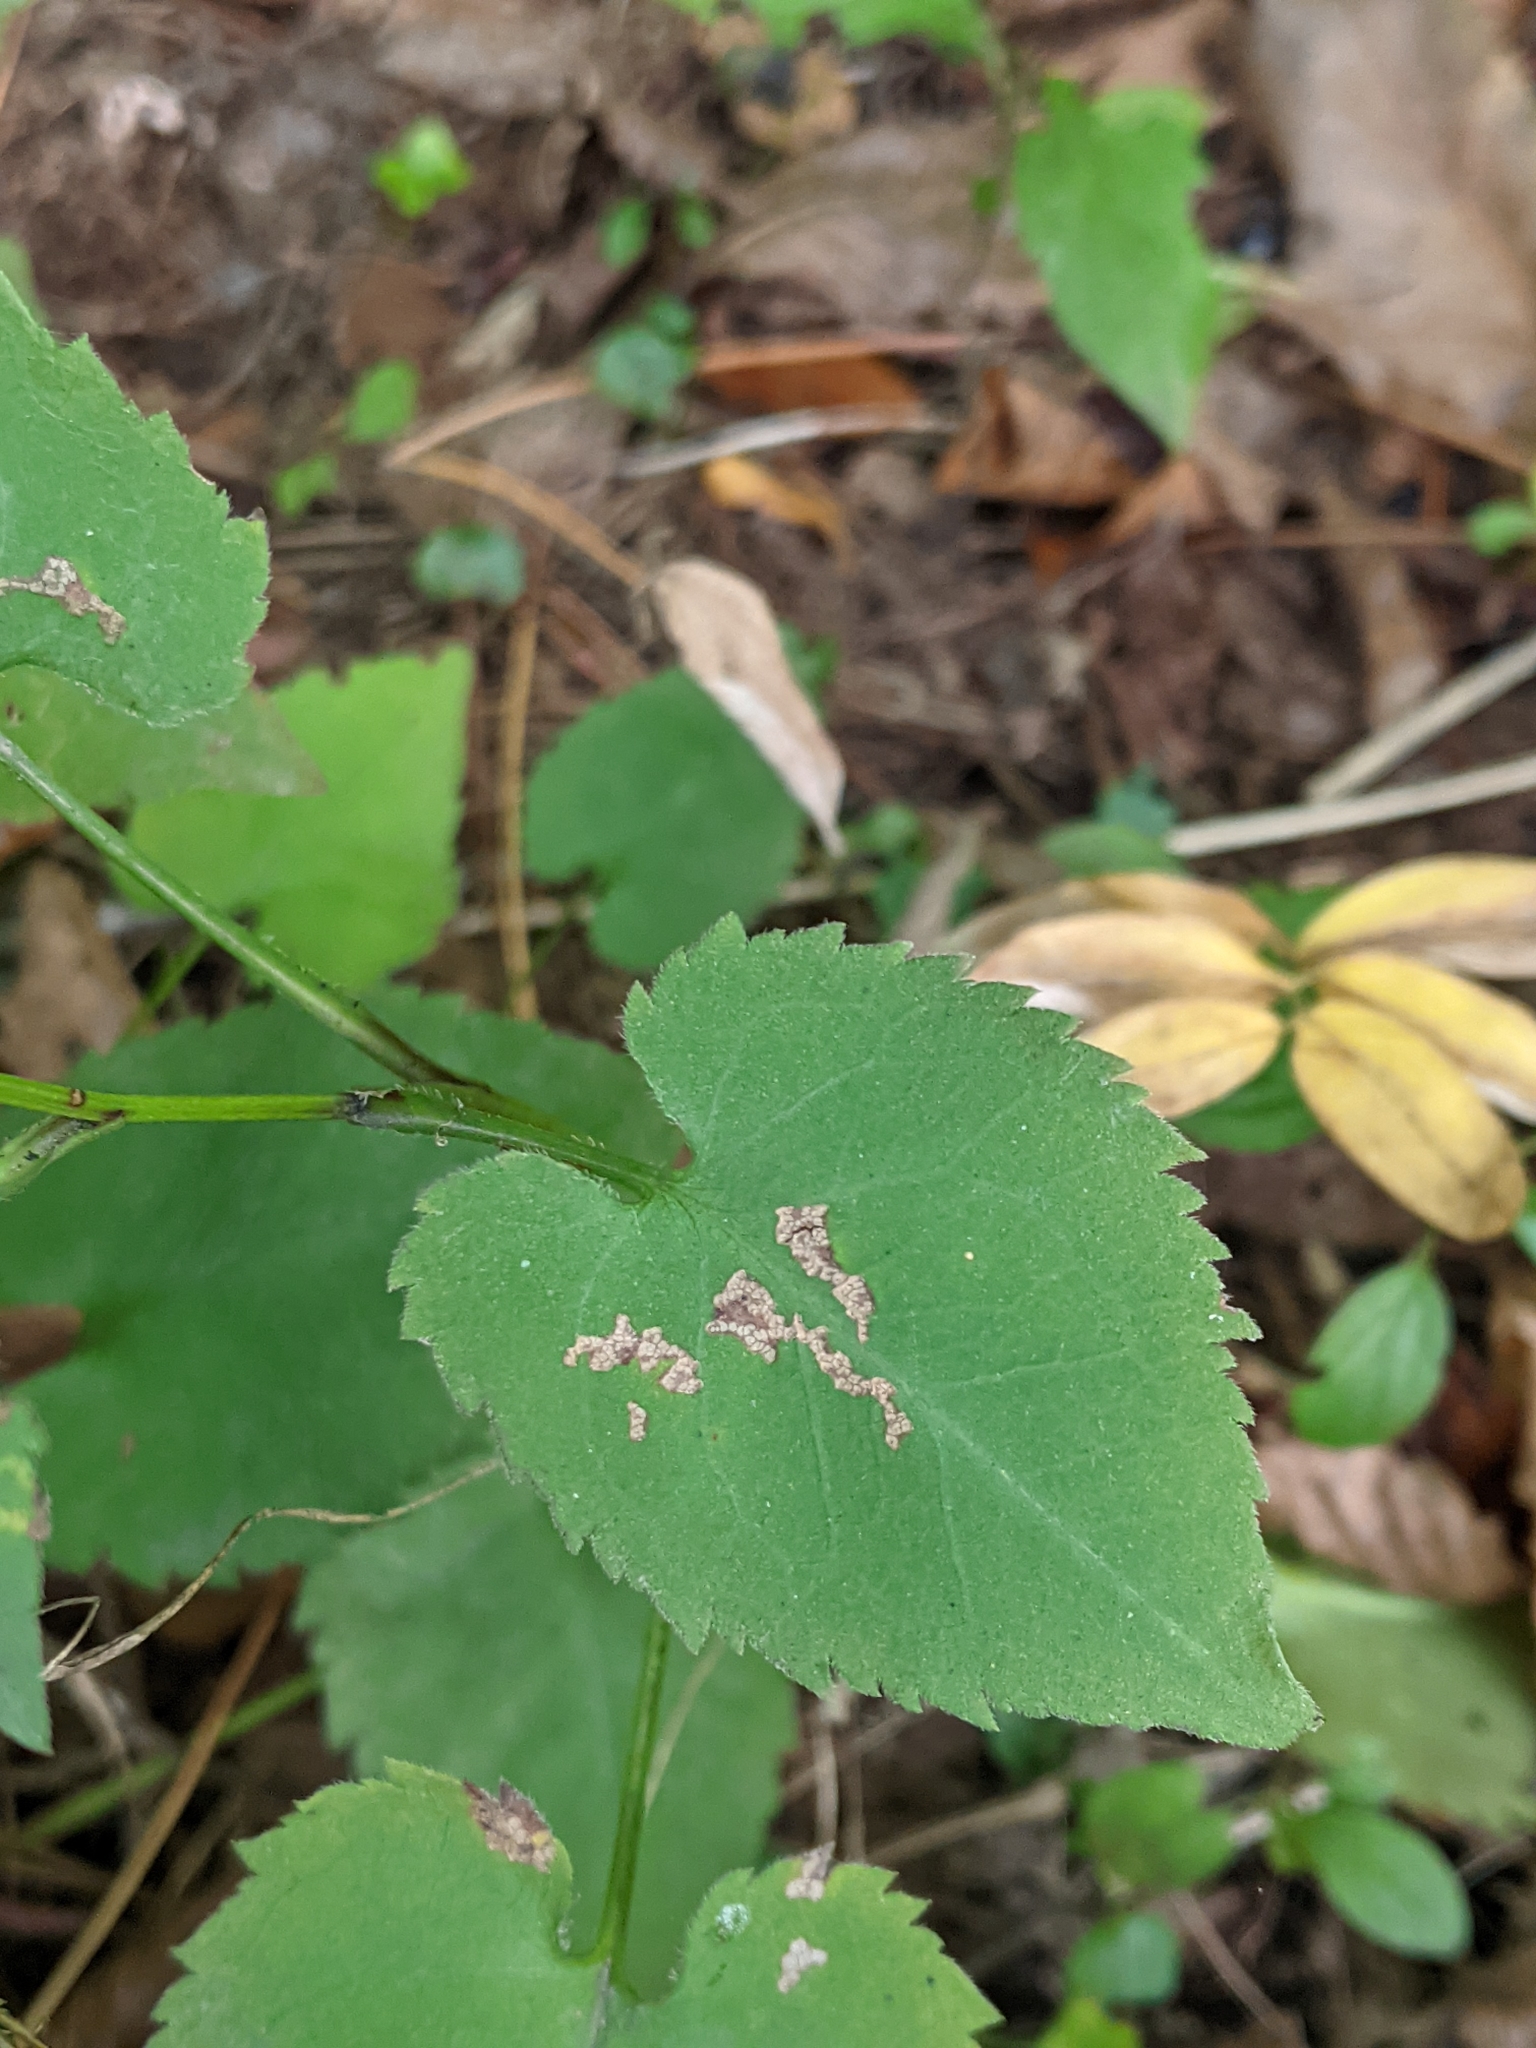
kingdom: Plantae
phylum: Tracheophyta
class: Magnoliopsida
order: Asterales
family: Asteraceae
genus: Symphyotrichum
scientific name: Symphyotrichum cordifolium
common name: Beeweed
